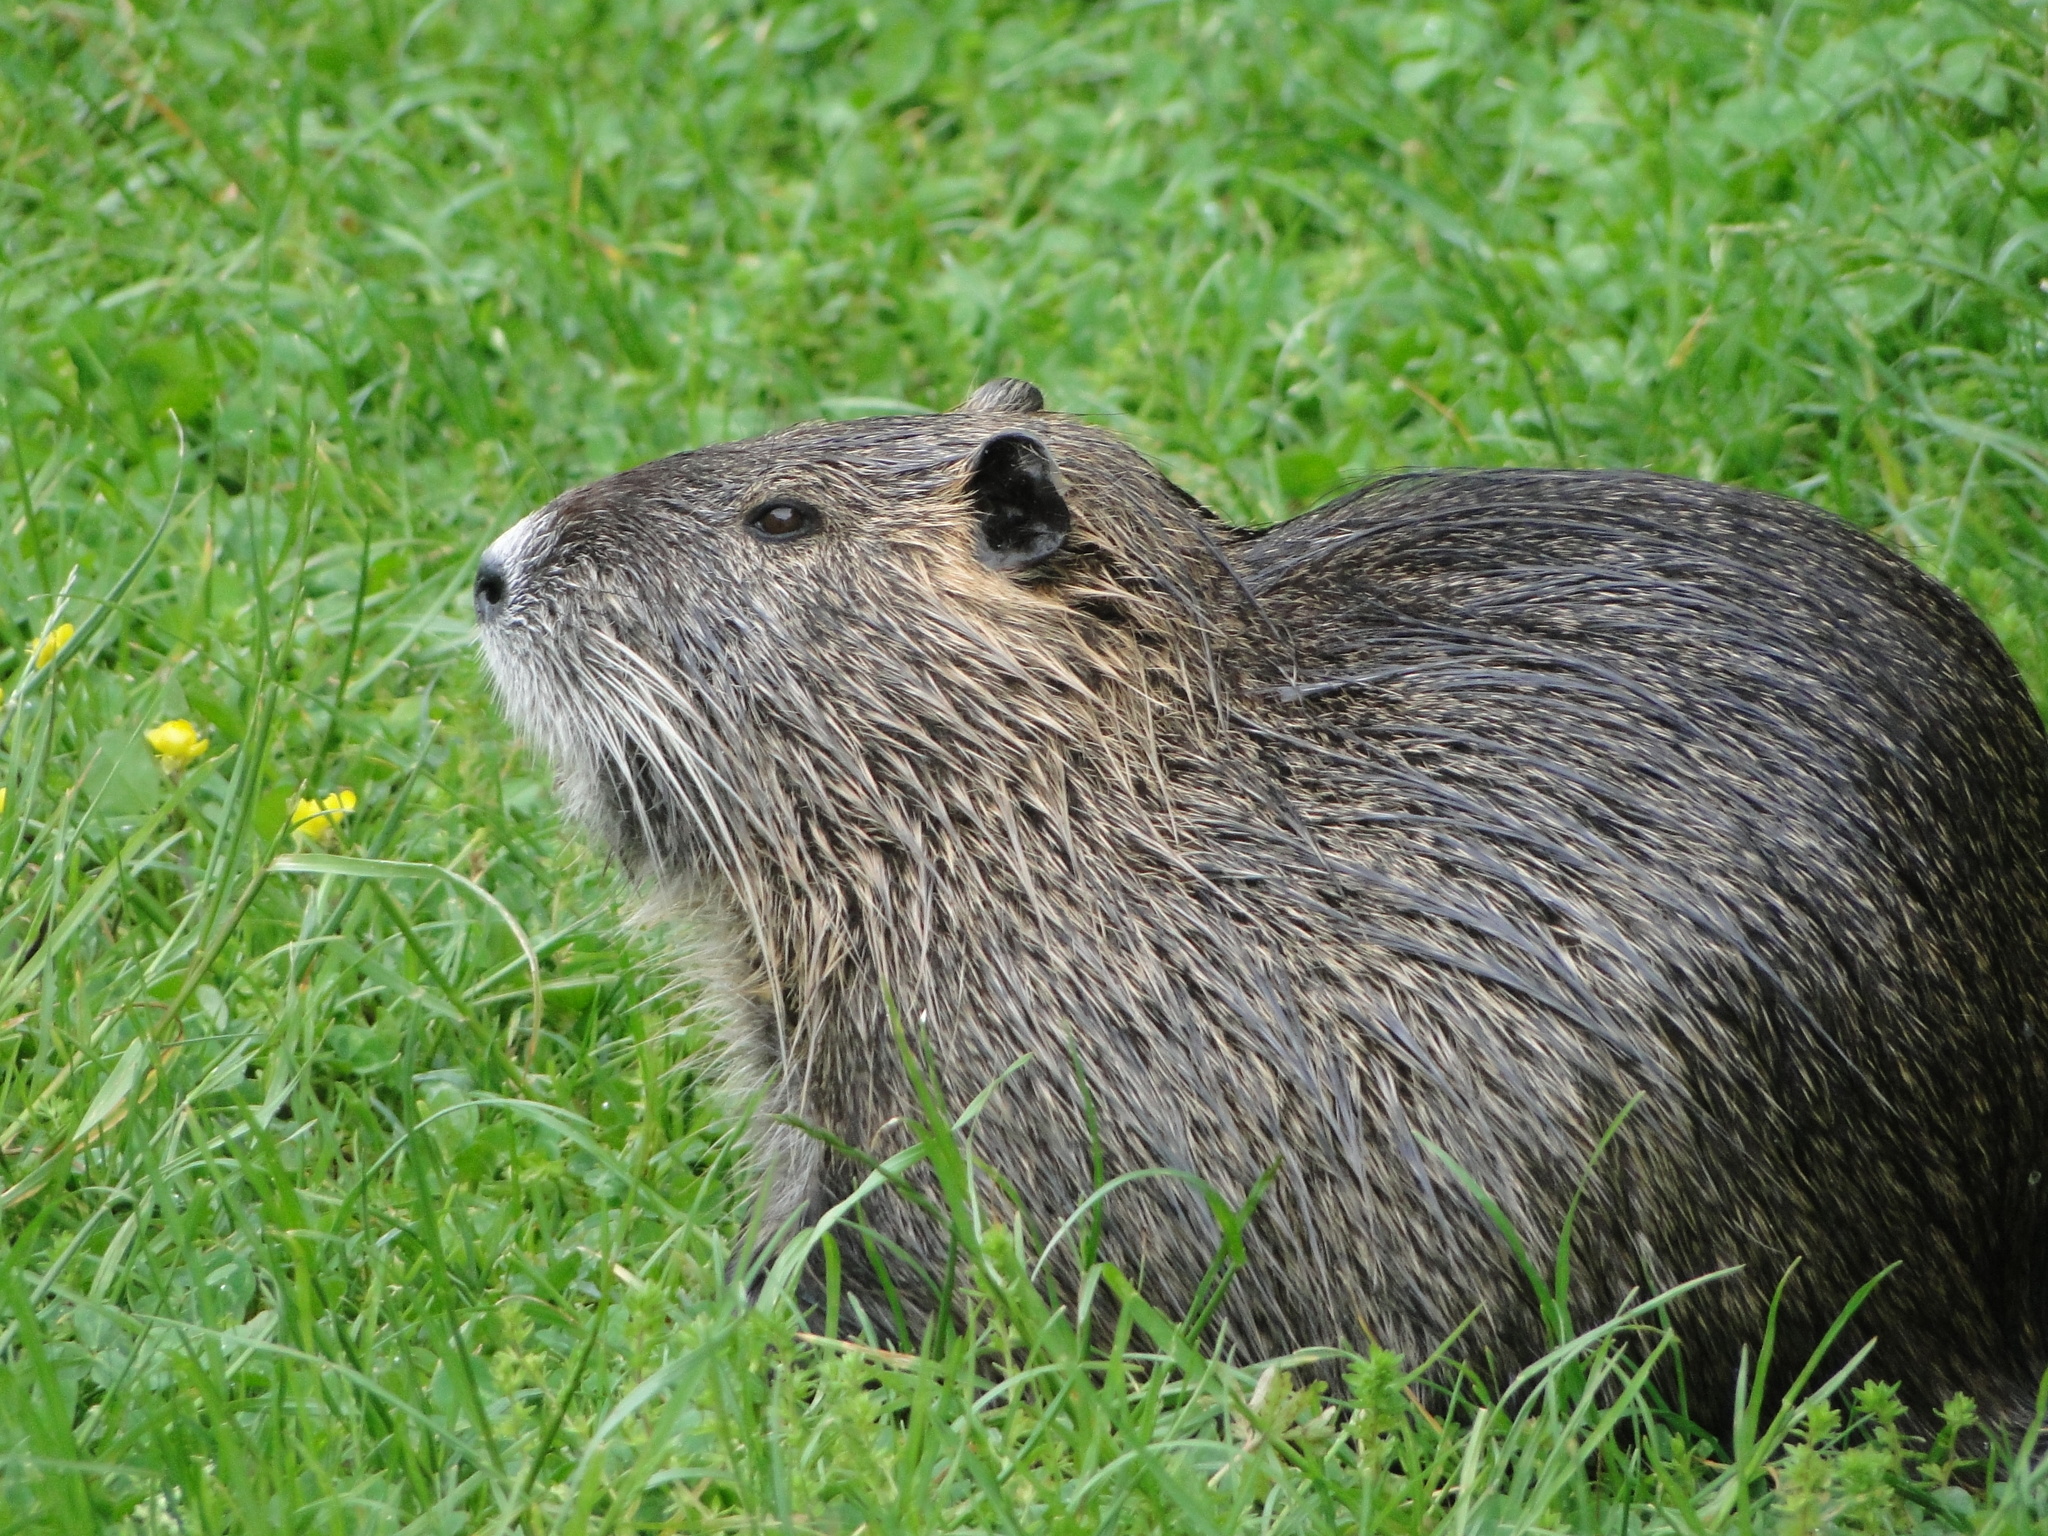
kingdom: Animalia
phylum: Chordata
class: Mammalia
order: Rodentia
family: Myocastoridae
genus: Myocastor
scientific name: Myocastor coypus
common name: Coypu
